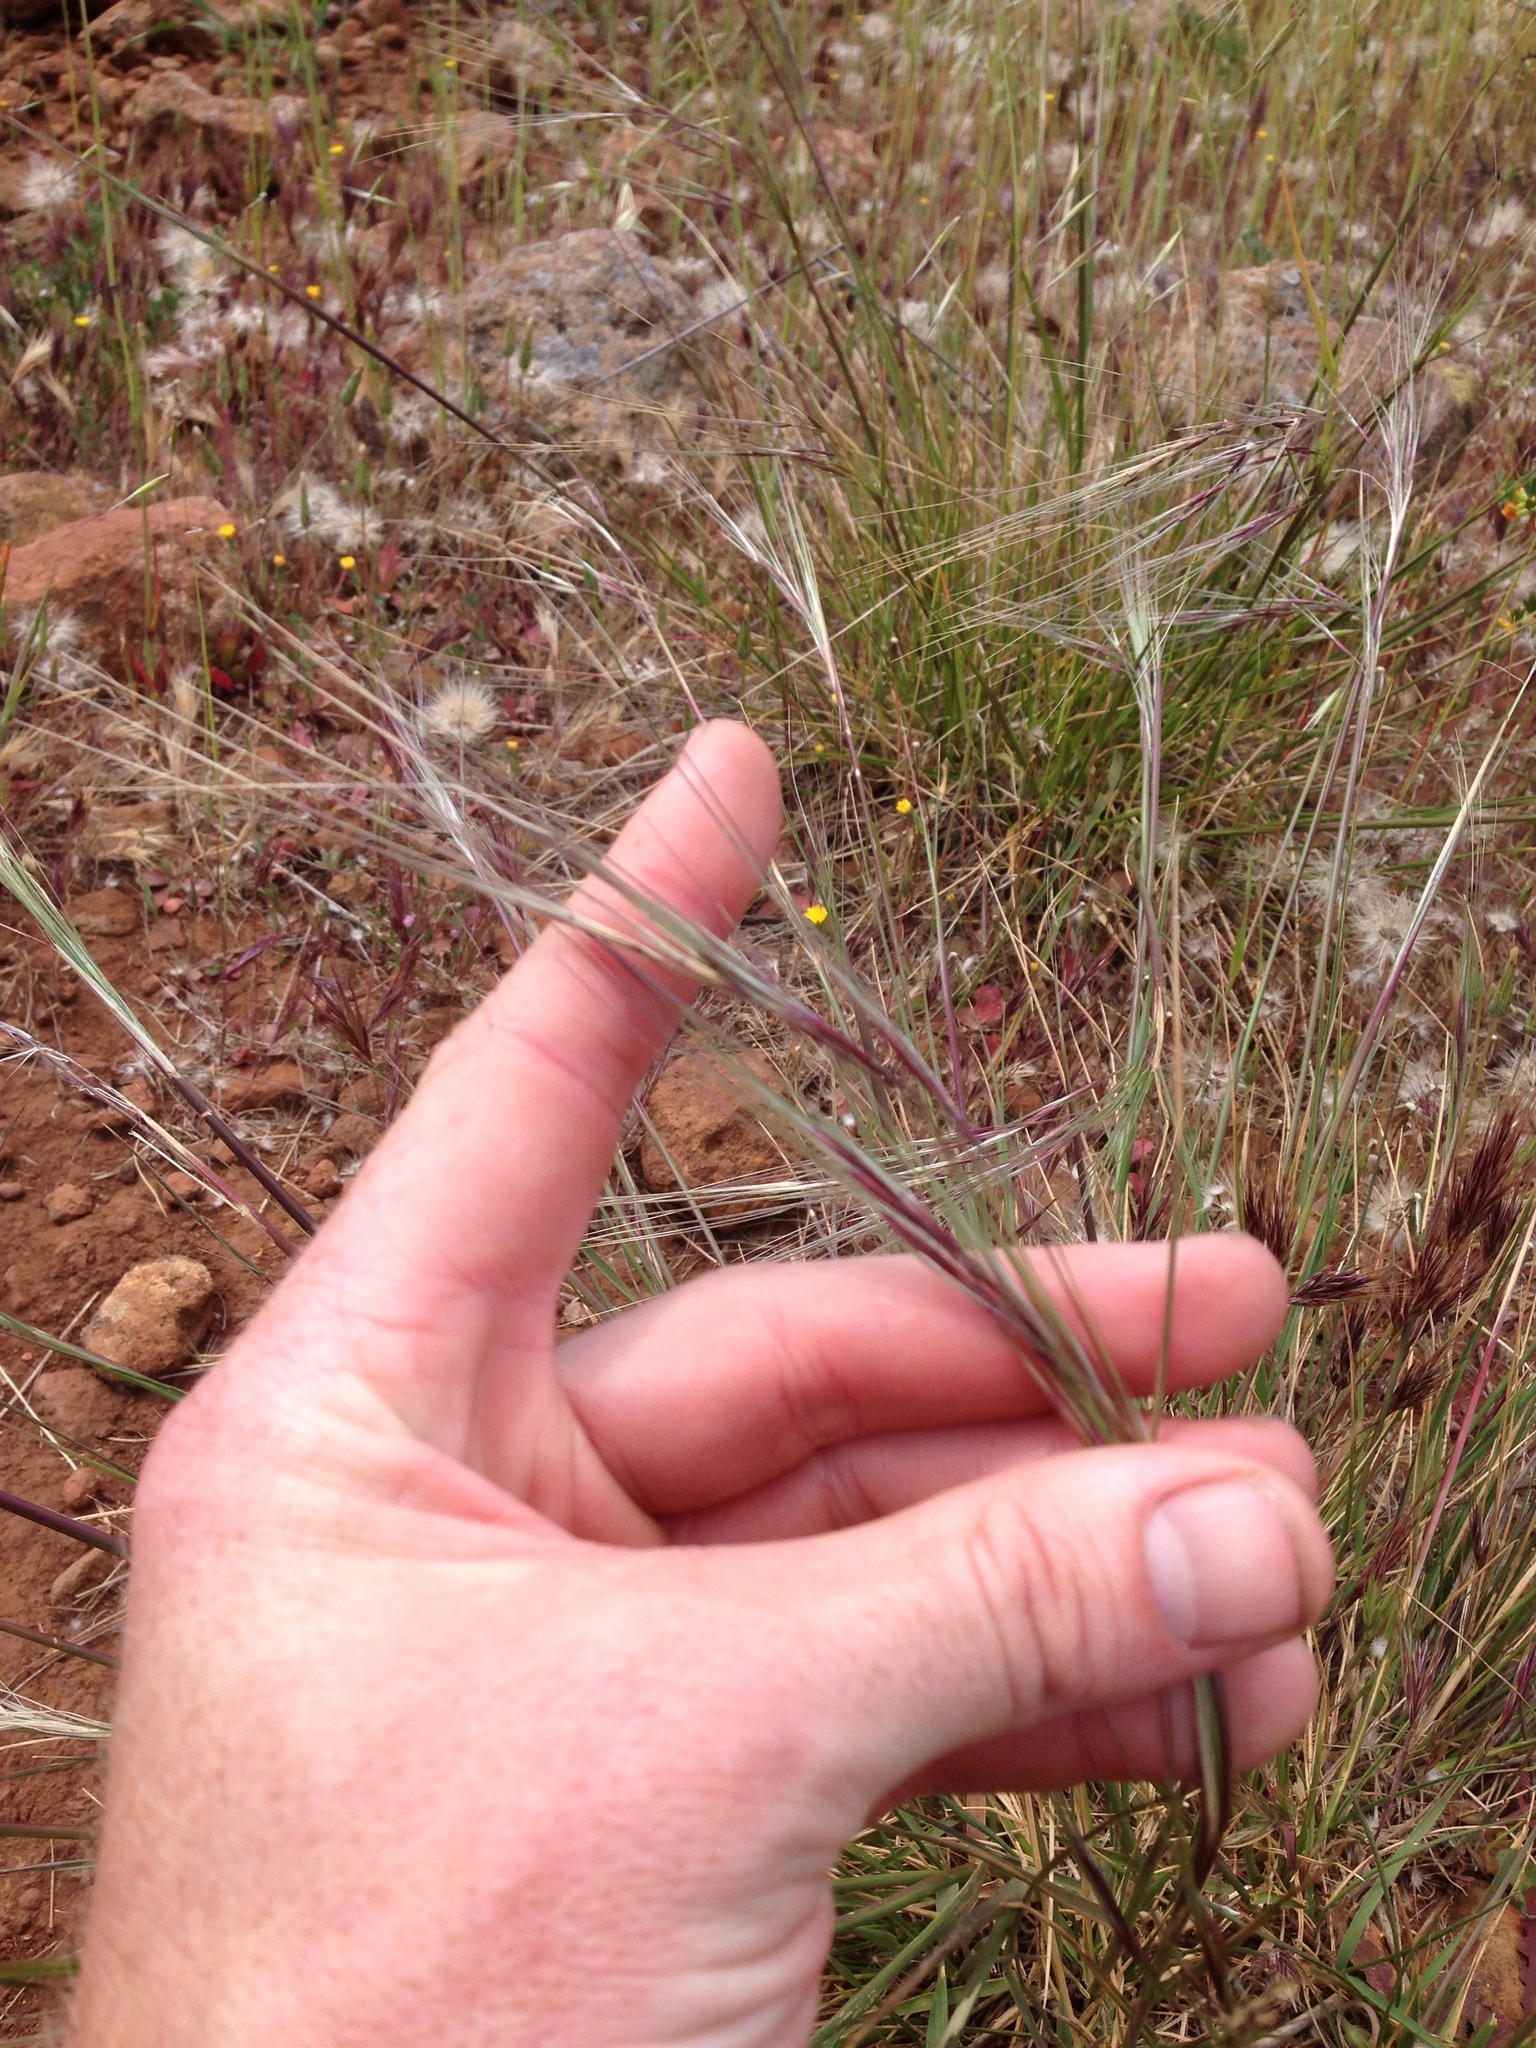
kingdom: Plantae
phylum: Tracheophyta
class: Liliopsida
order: Poales
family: Poaceae
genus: Nassella
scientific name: Nassella pulchra
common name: Purple needlegrass
